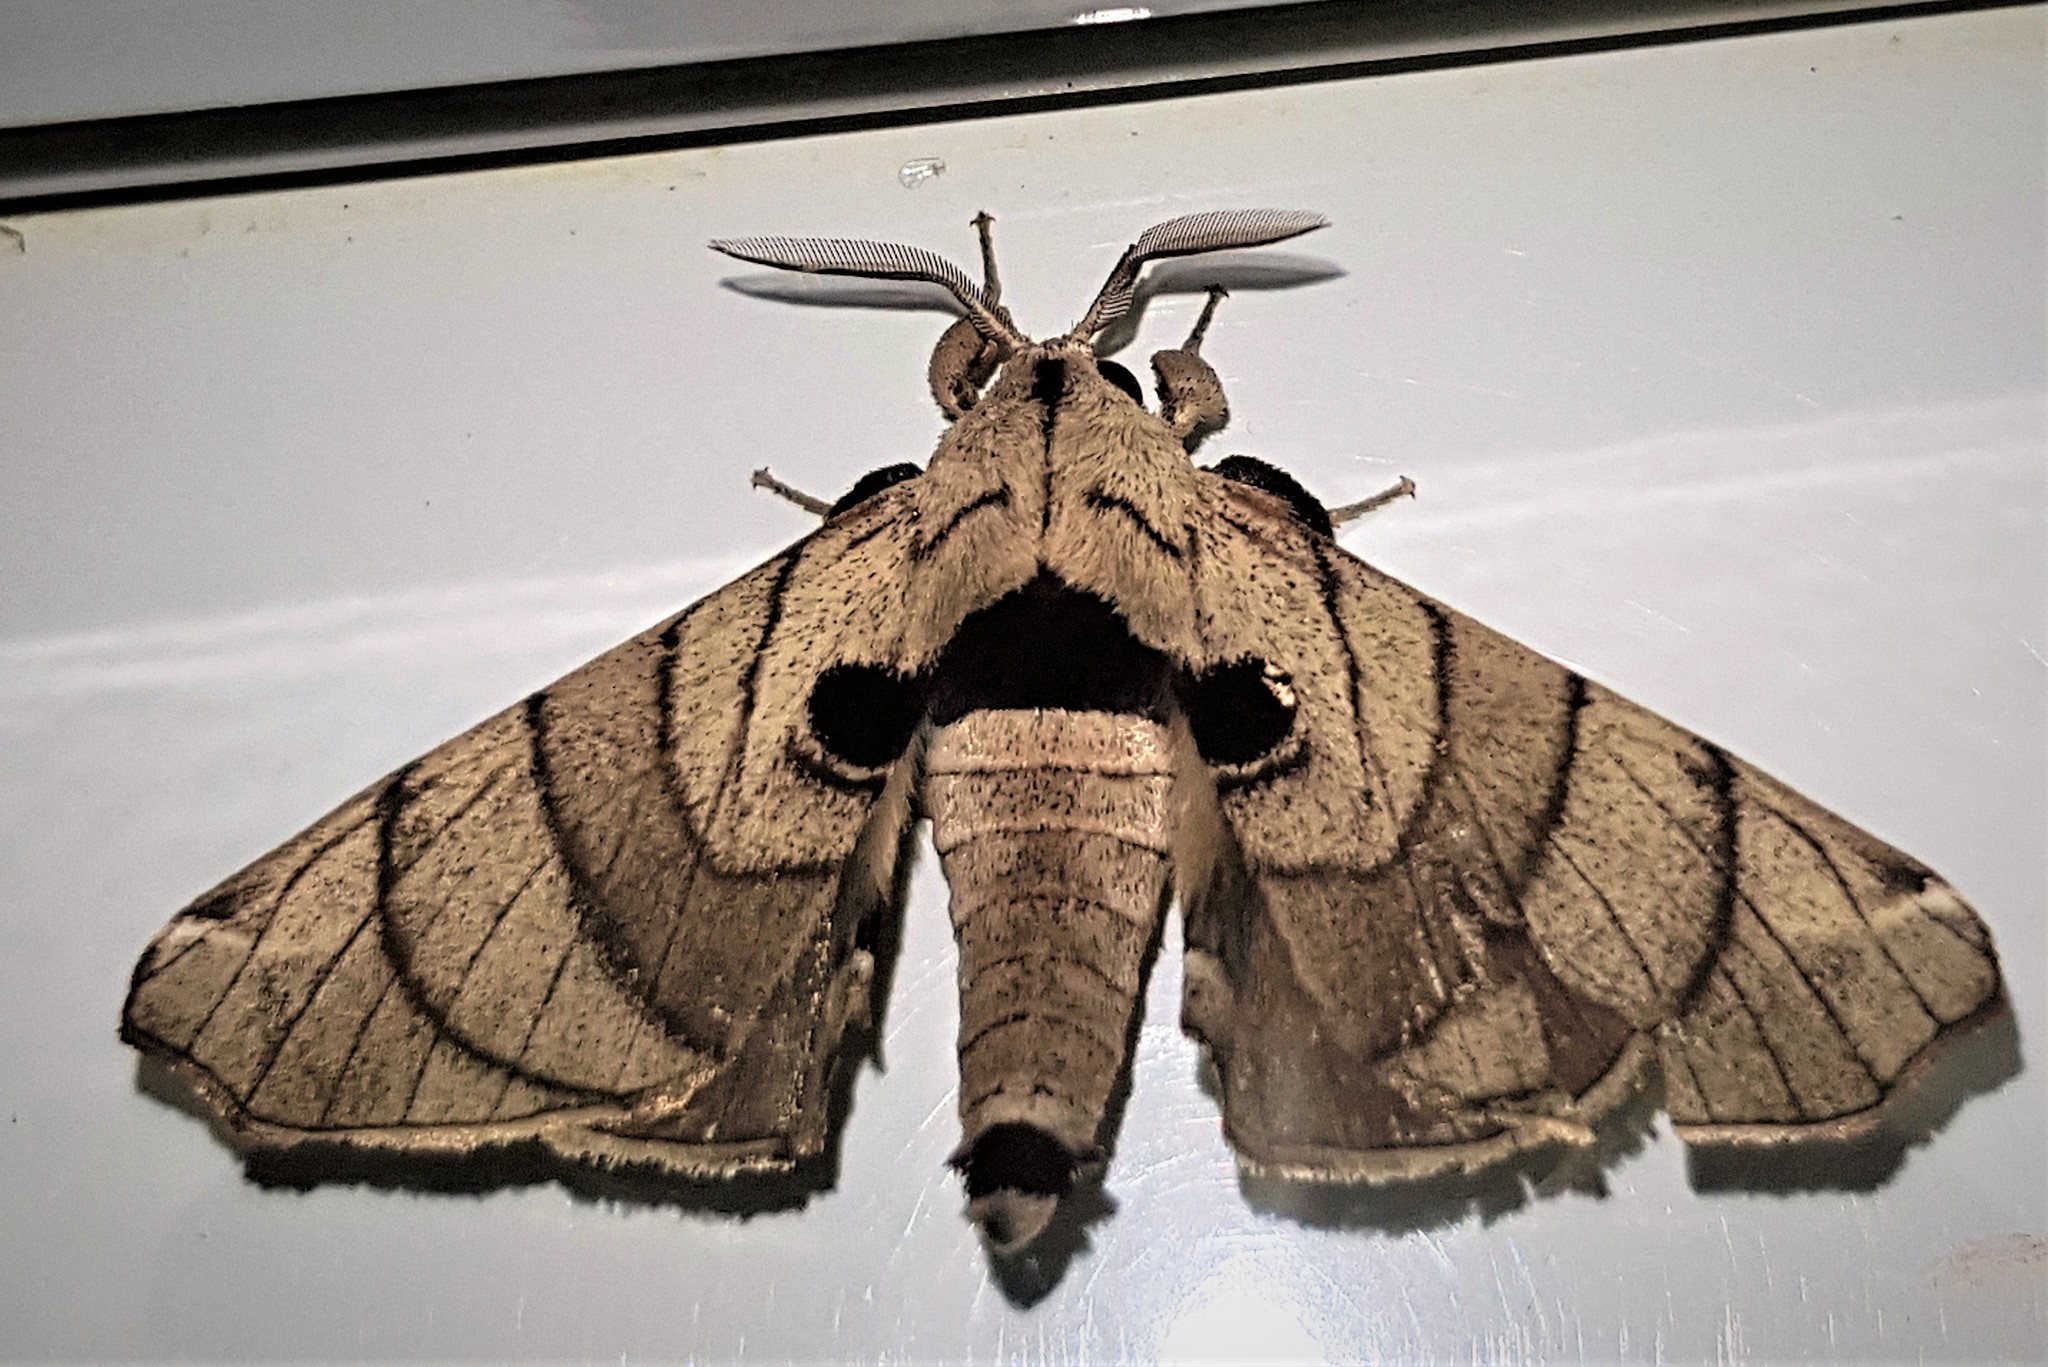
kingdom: Animalia
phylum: Arthropoda
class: Insecta
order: Lepidoptera
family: Apatelodidae
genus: Hygrochroa
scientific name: Hygrochroa firmiana
